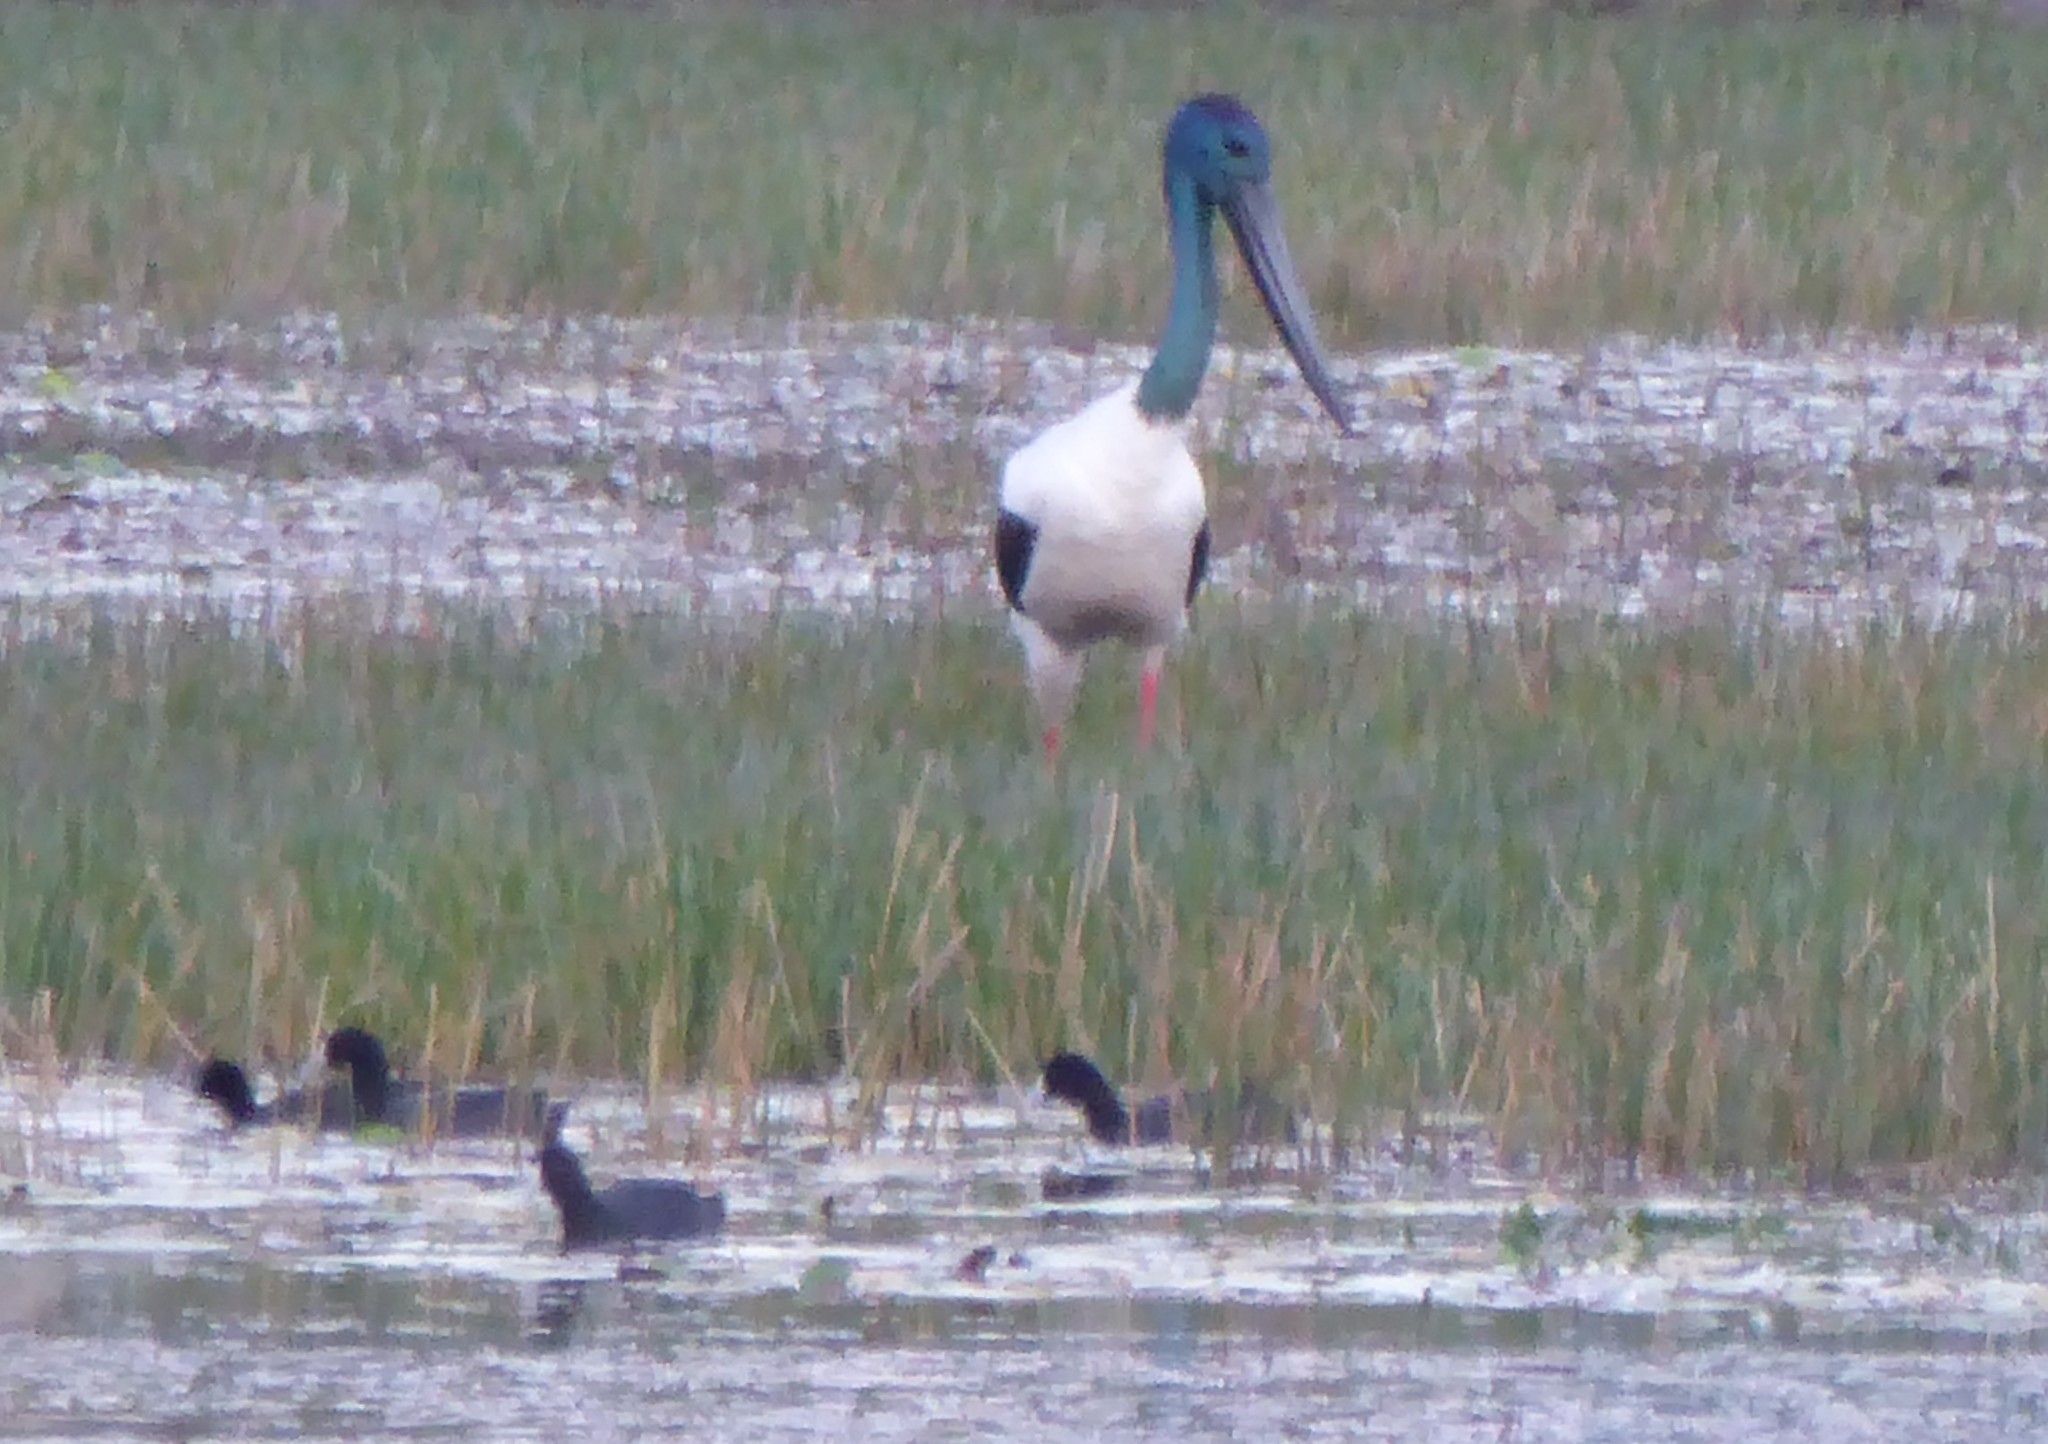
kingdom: Animalia
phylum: Chordata
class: Aves
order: Ciconiiformes
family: Ciconiidae
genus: Ephippiorhynchus
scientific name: Ephippiorhynchus asiaticus
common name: Black-necked stork
